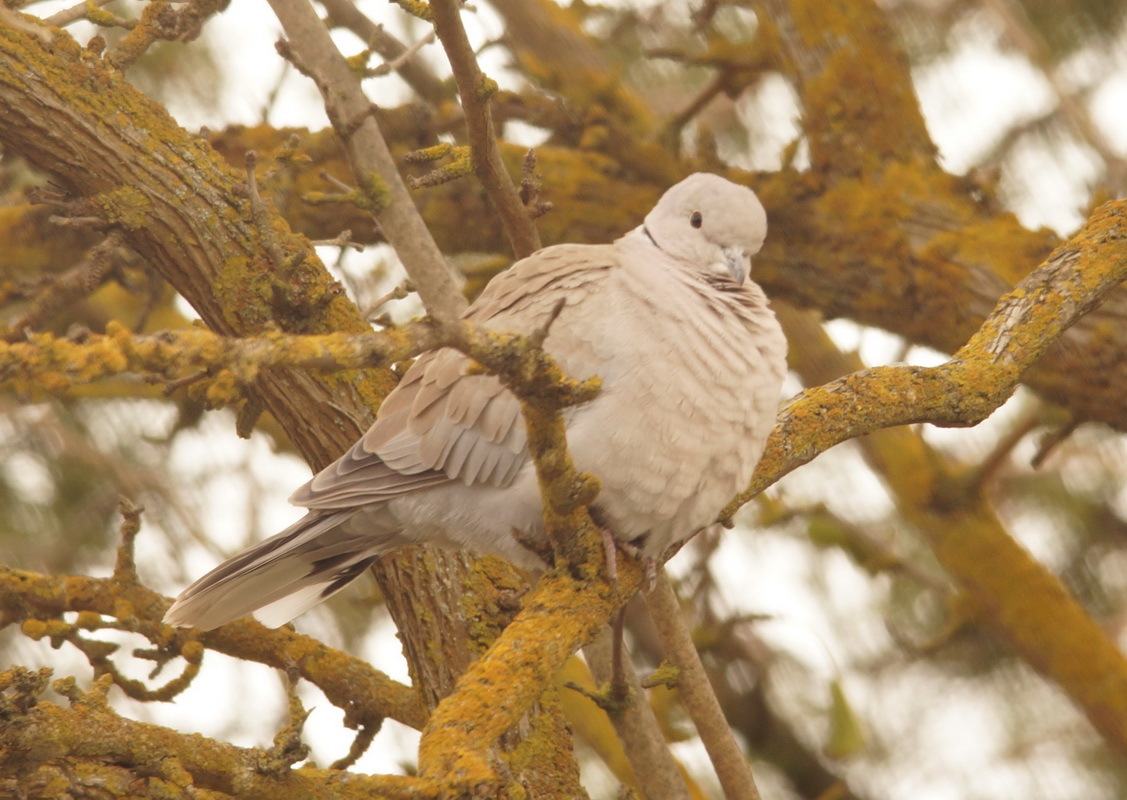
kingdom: Animalia
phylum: Chordata
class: Aves
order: Columbiformes
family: Columbidae
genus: Streptopelia
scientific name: Streptopelia decaocto
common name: Eurasian collared dove
